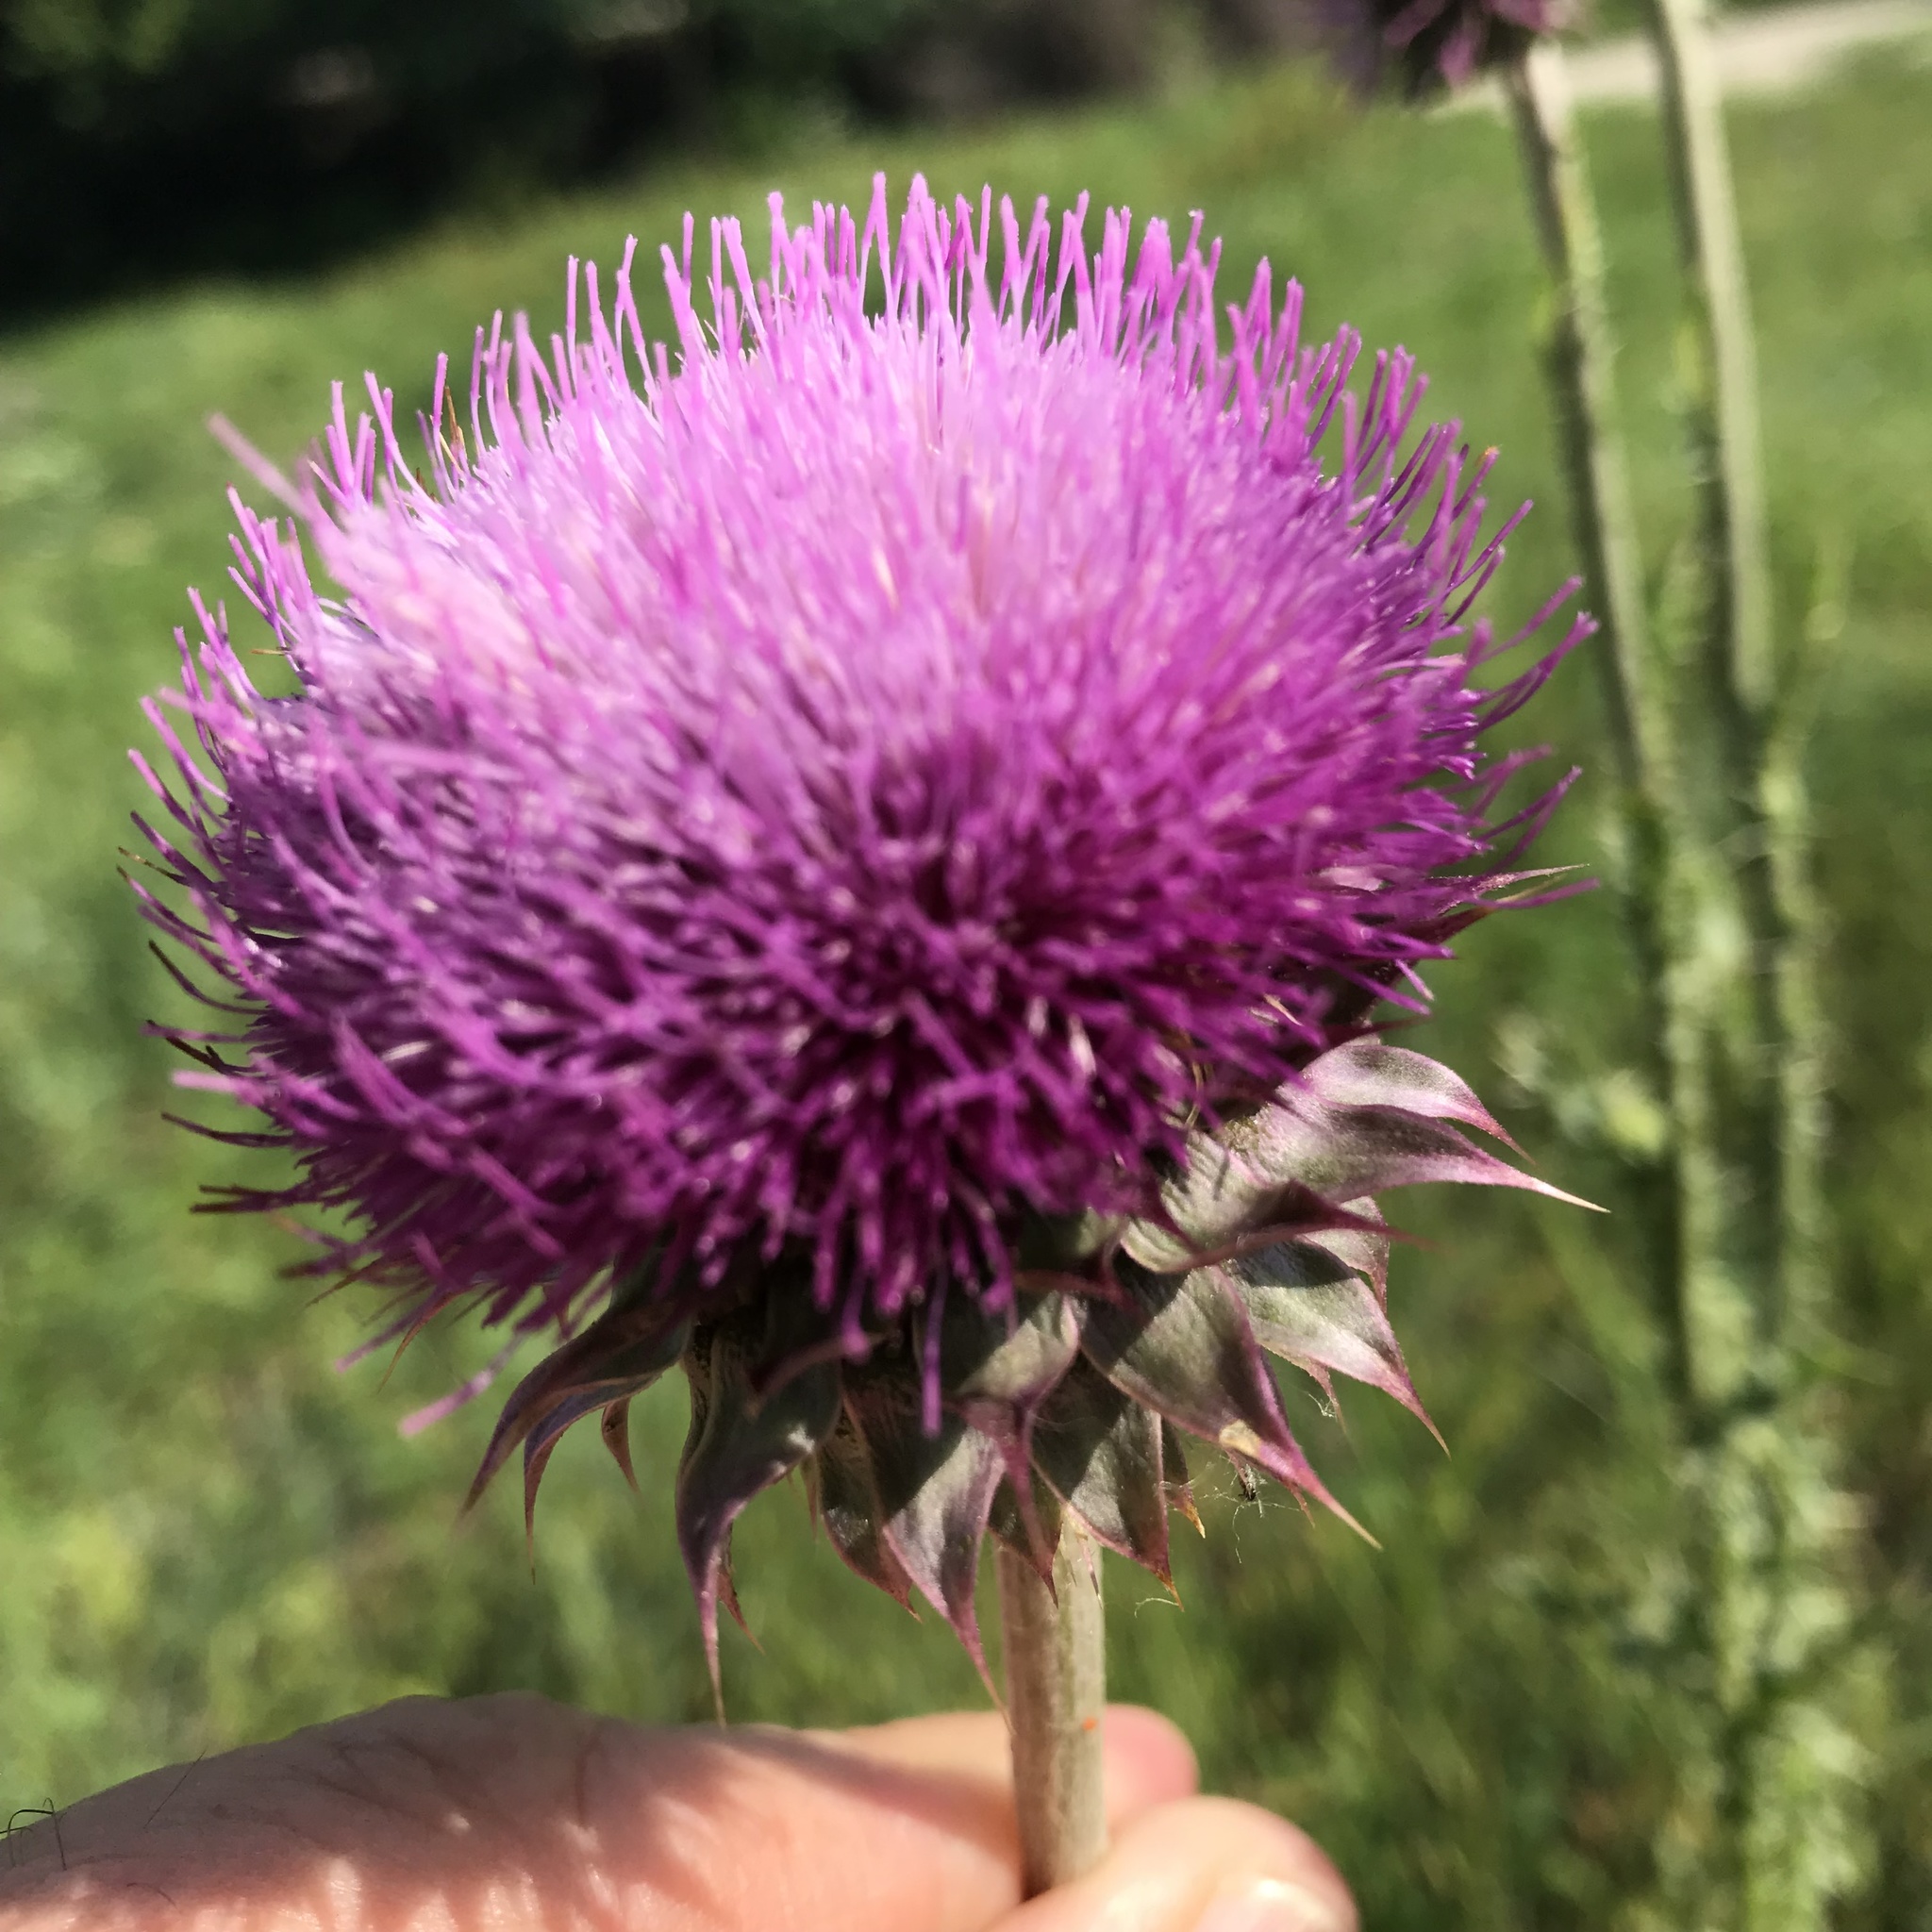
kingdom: Plantae
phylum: Tracheophyta
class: Magnoliopsida
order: Asterales
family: Asteraceae
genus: Carduus
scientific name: Carduus nutans
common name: Musk thistle
